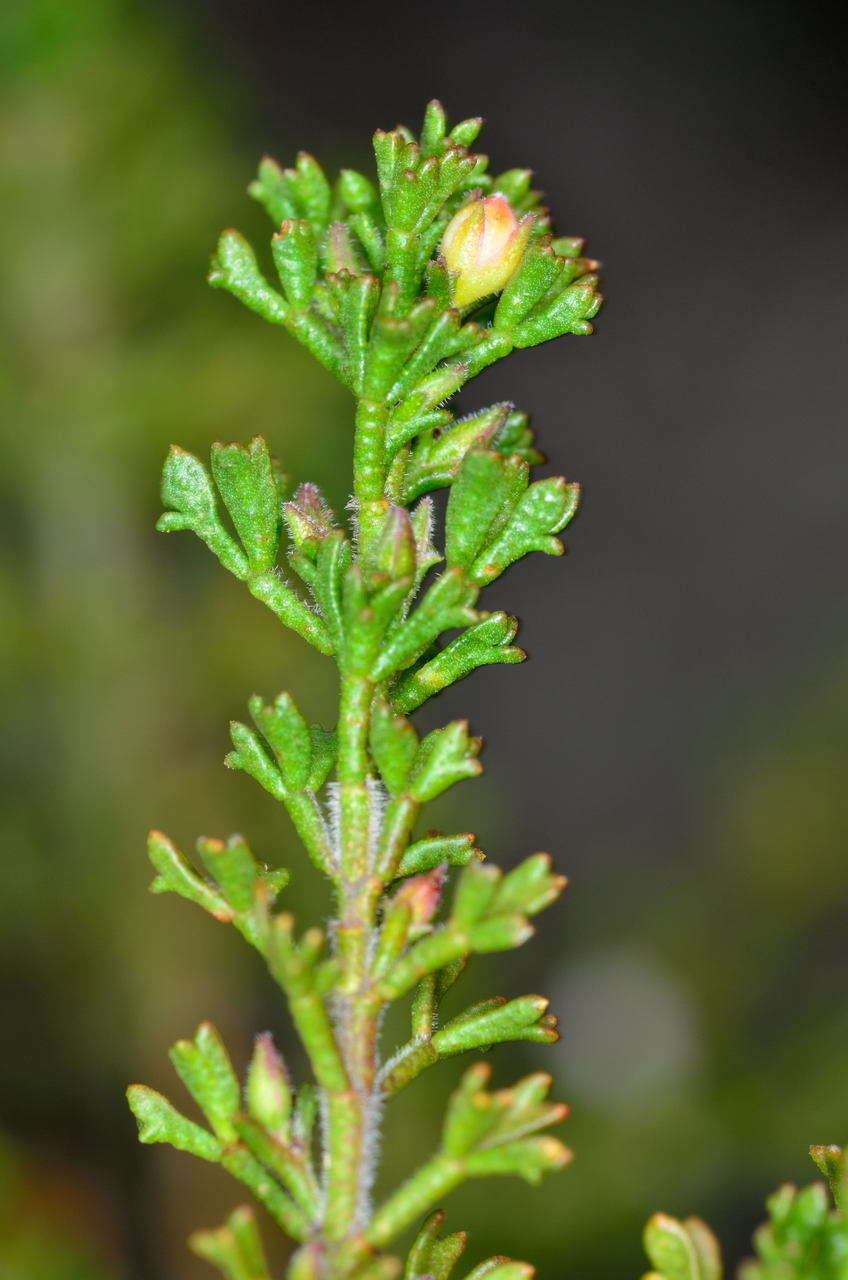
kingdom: Plantae
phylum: Tracheophyta
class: Magnoliopsida
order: Sapindales
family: Rutaceae
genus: Cyanothamnus
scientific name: Cyanothamnus anemonifolius
